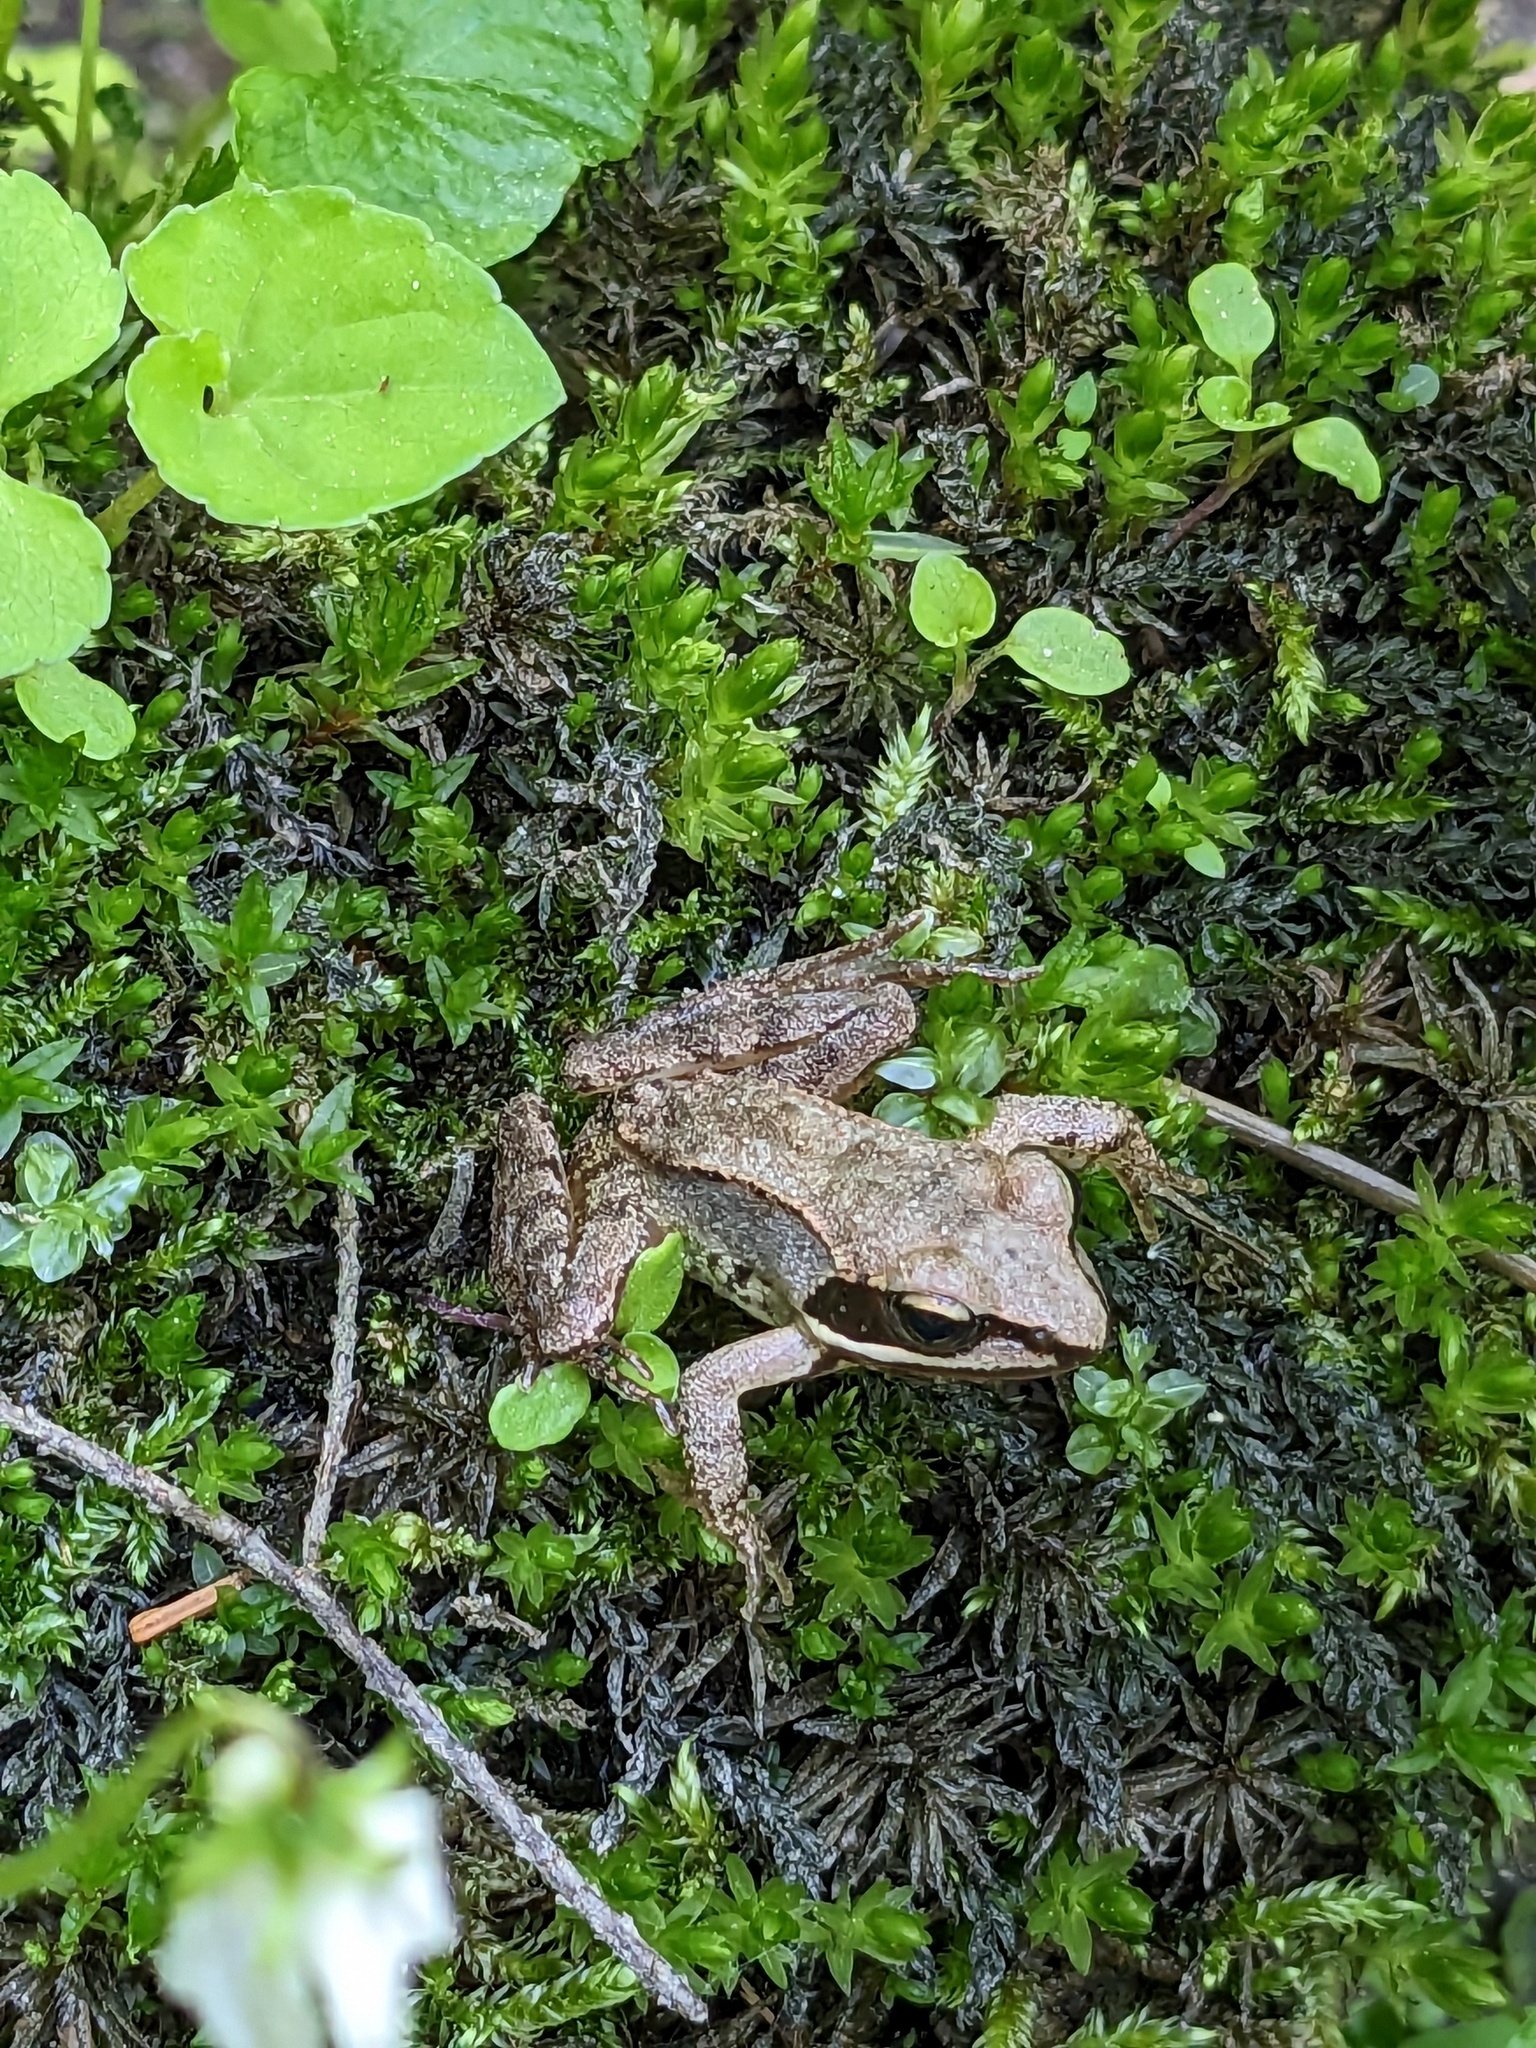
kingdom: Animalia
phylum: Chordata
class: Amphibia
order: Anura
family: Ranidae
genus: Lithobates
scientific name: Lithobates sylvaticus
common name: Wood frog
